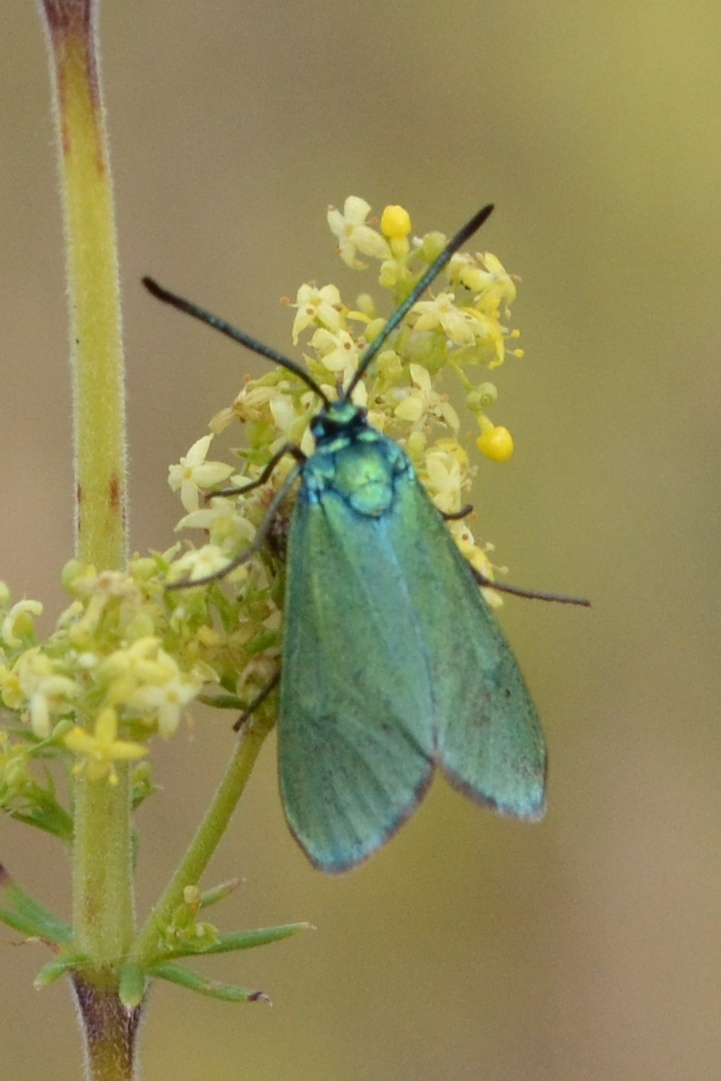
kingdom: Animalia
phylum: Arthropoda
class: Insecta
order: Lepidoptera
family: Zygaenidae
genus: Adscita
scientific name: Adscita statices
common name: Forester
